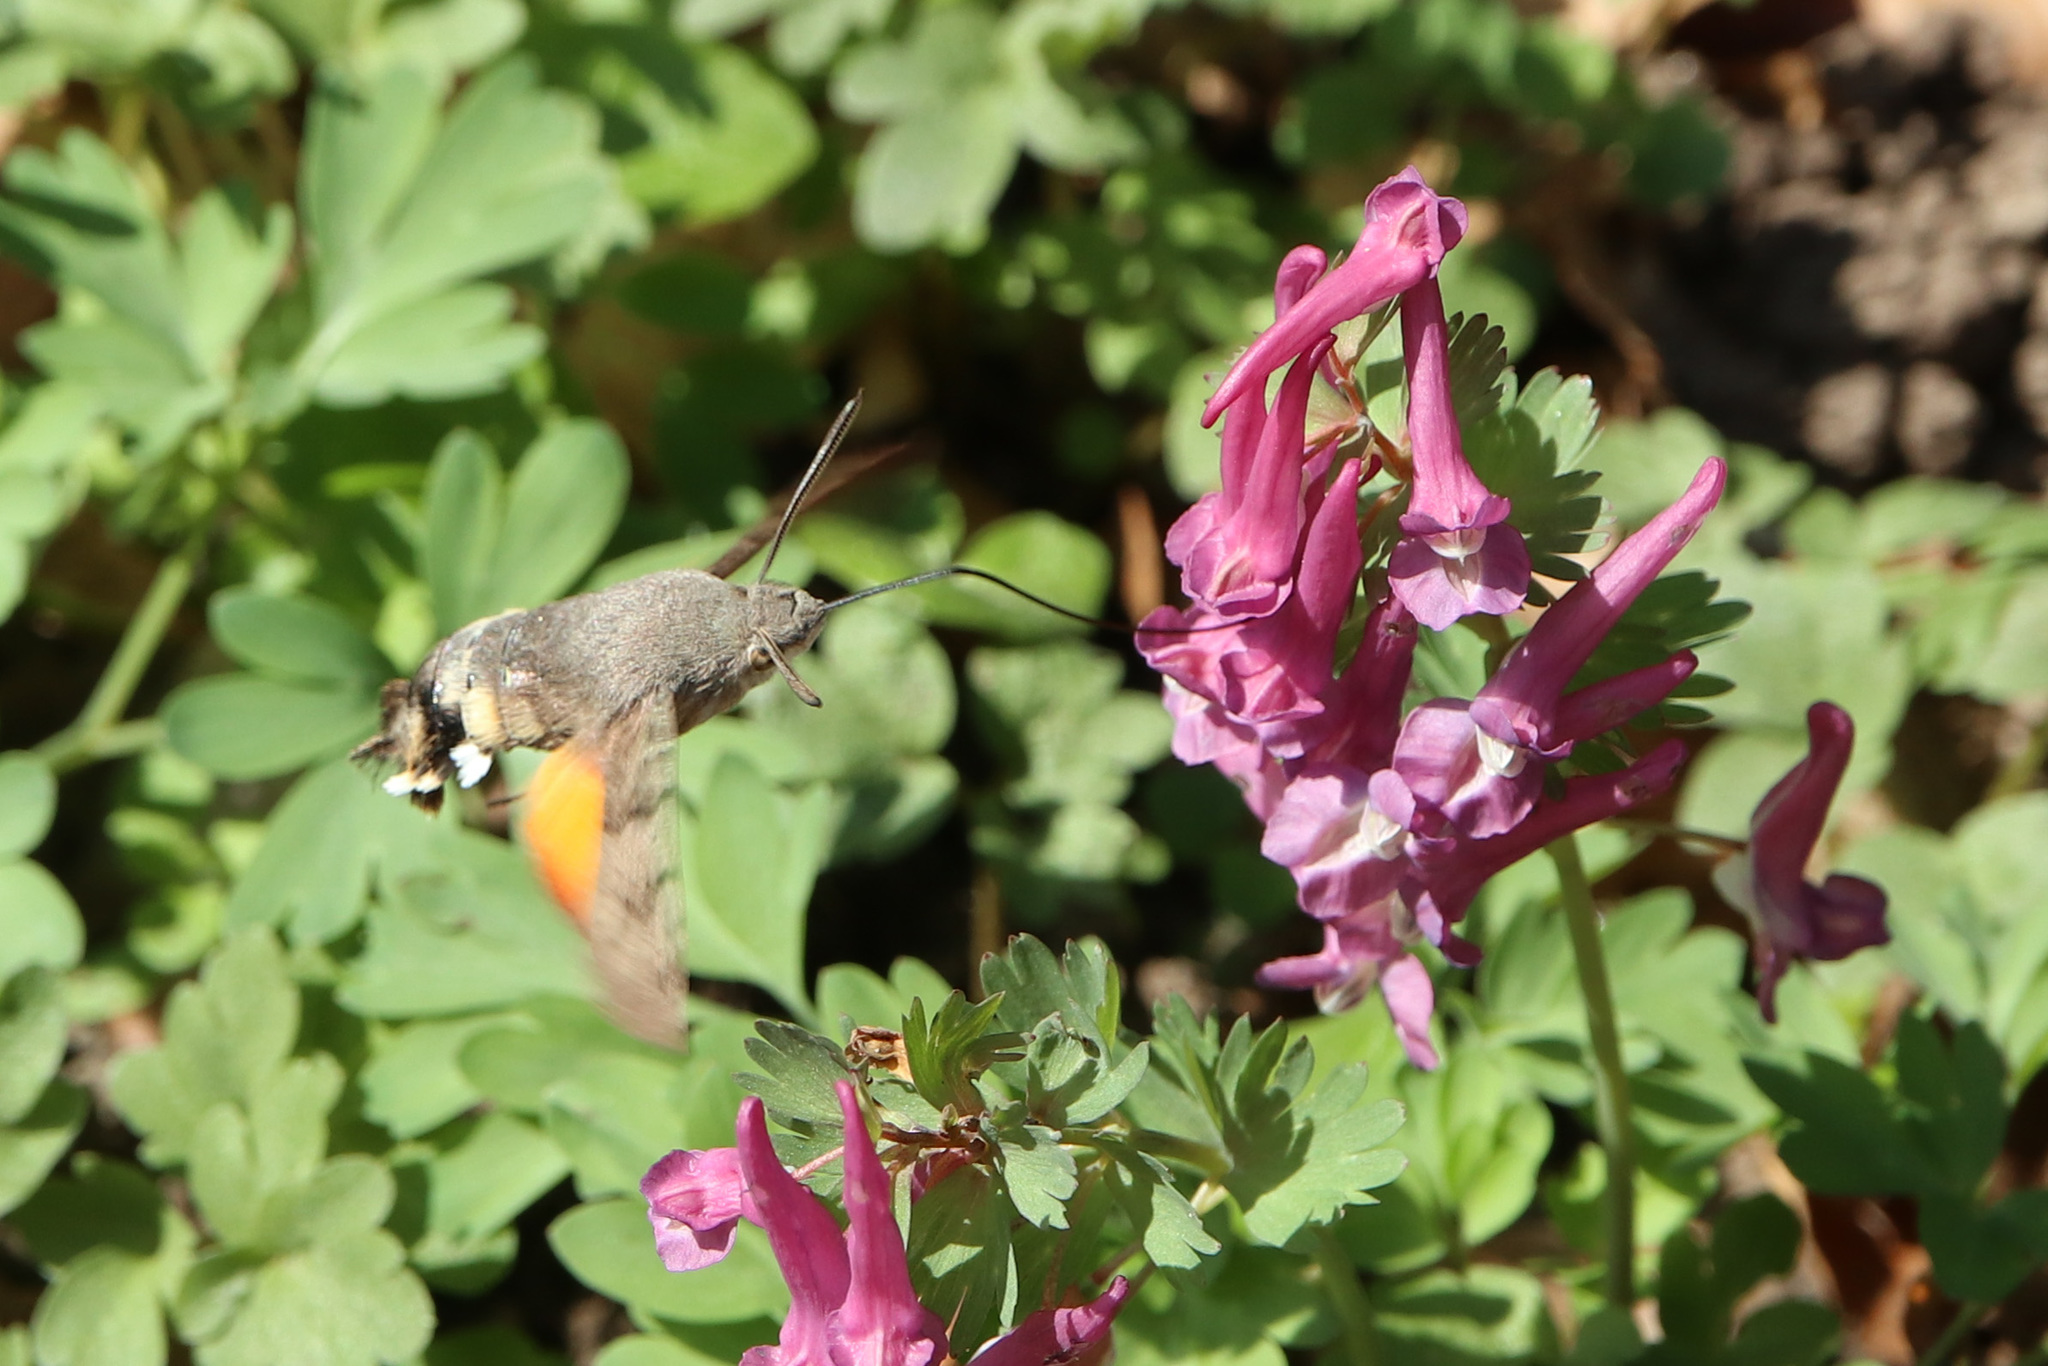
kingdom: Animalia
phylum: Arthropoda
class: Insecta
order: Lepidoptera
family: Sphingidae
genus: Macroglossum
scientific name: Macroglossum stellatarum
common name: Humming-bird hawk-moth
